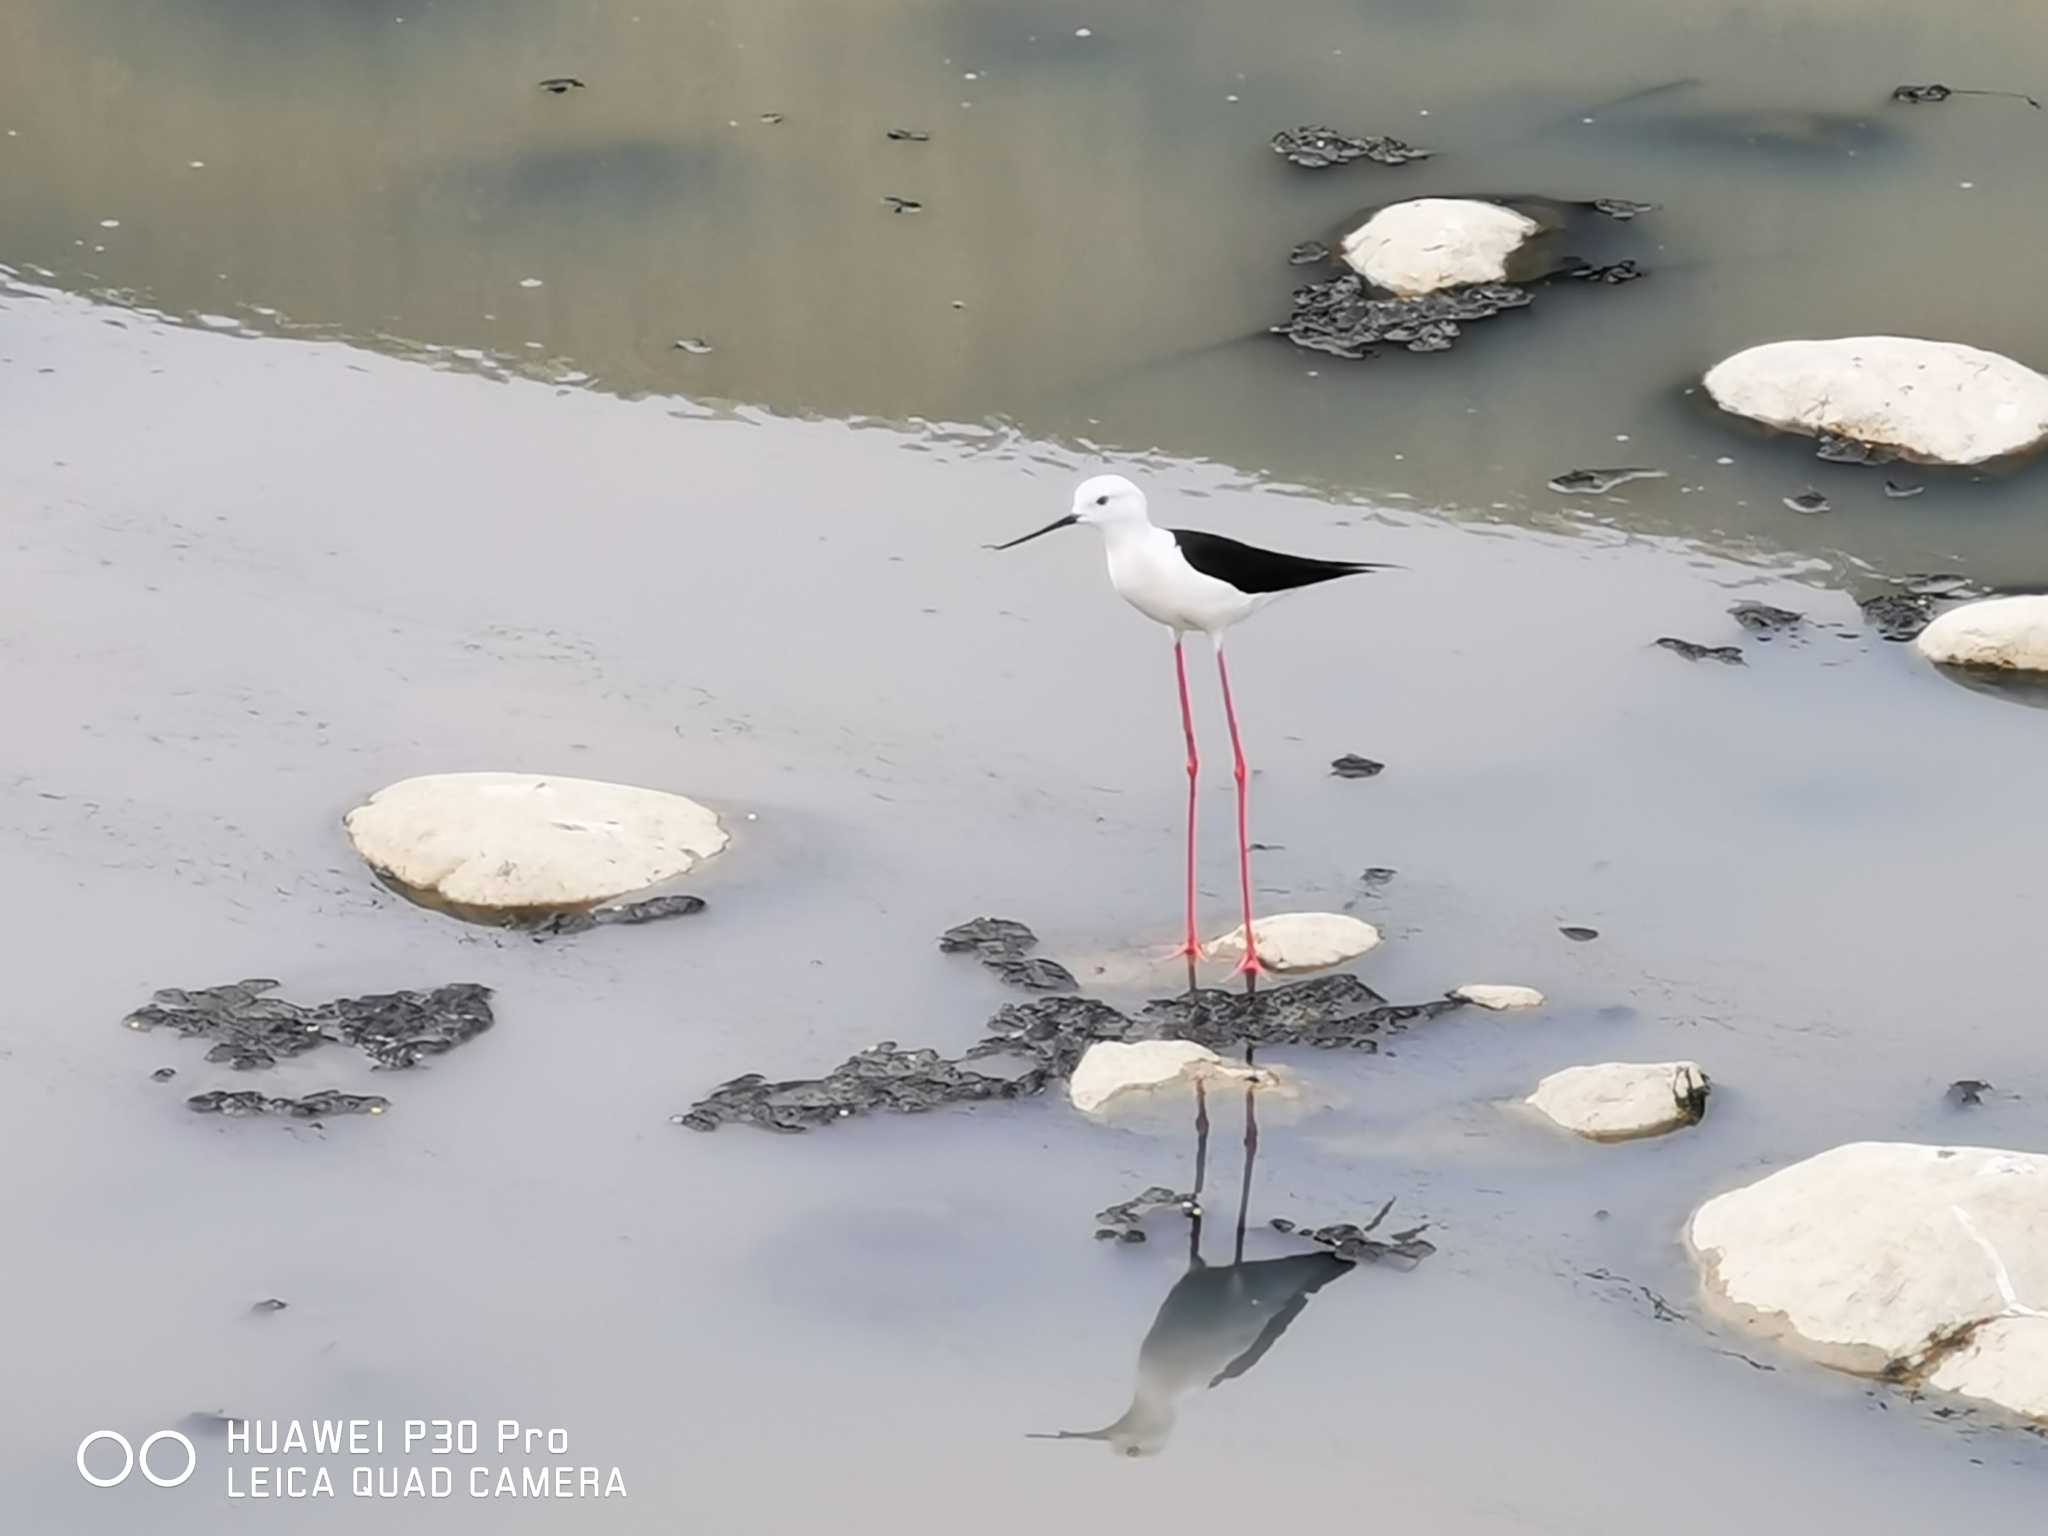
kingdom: Animalia
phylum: Chordata
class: Aves
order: Charadriiformes
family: Recurvirostridae
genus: Himantopus
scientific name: Himantopus himantopus
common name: Black-winged stilt
